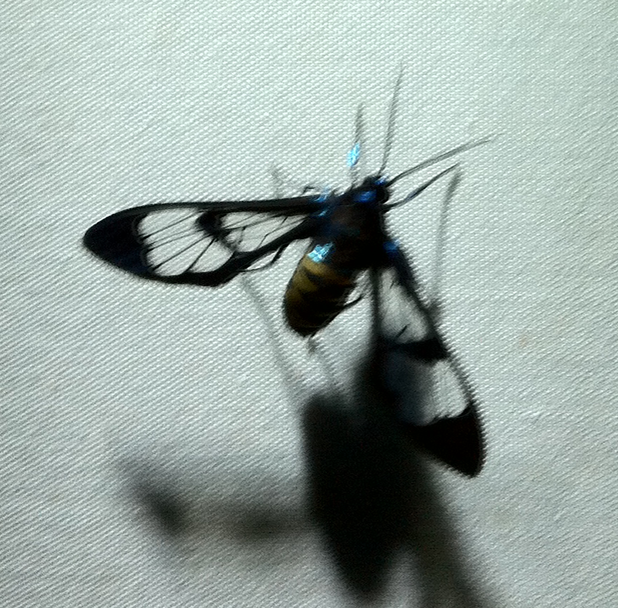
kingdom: Animalia
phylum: Arthropoda
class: Insecta
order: Lepidoptera
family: Erebidae
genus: Cosmosoma
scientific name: Cosmosoma metallescens
